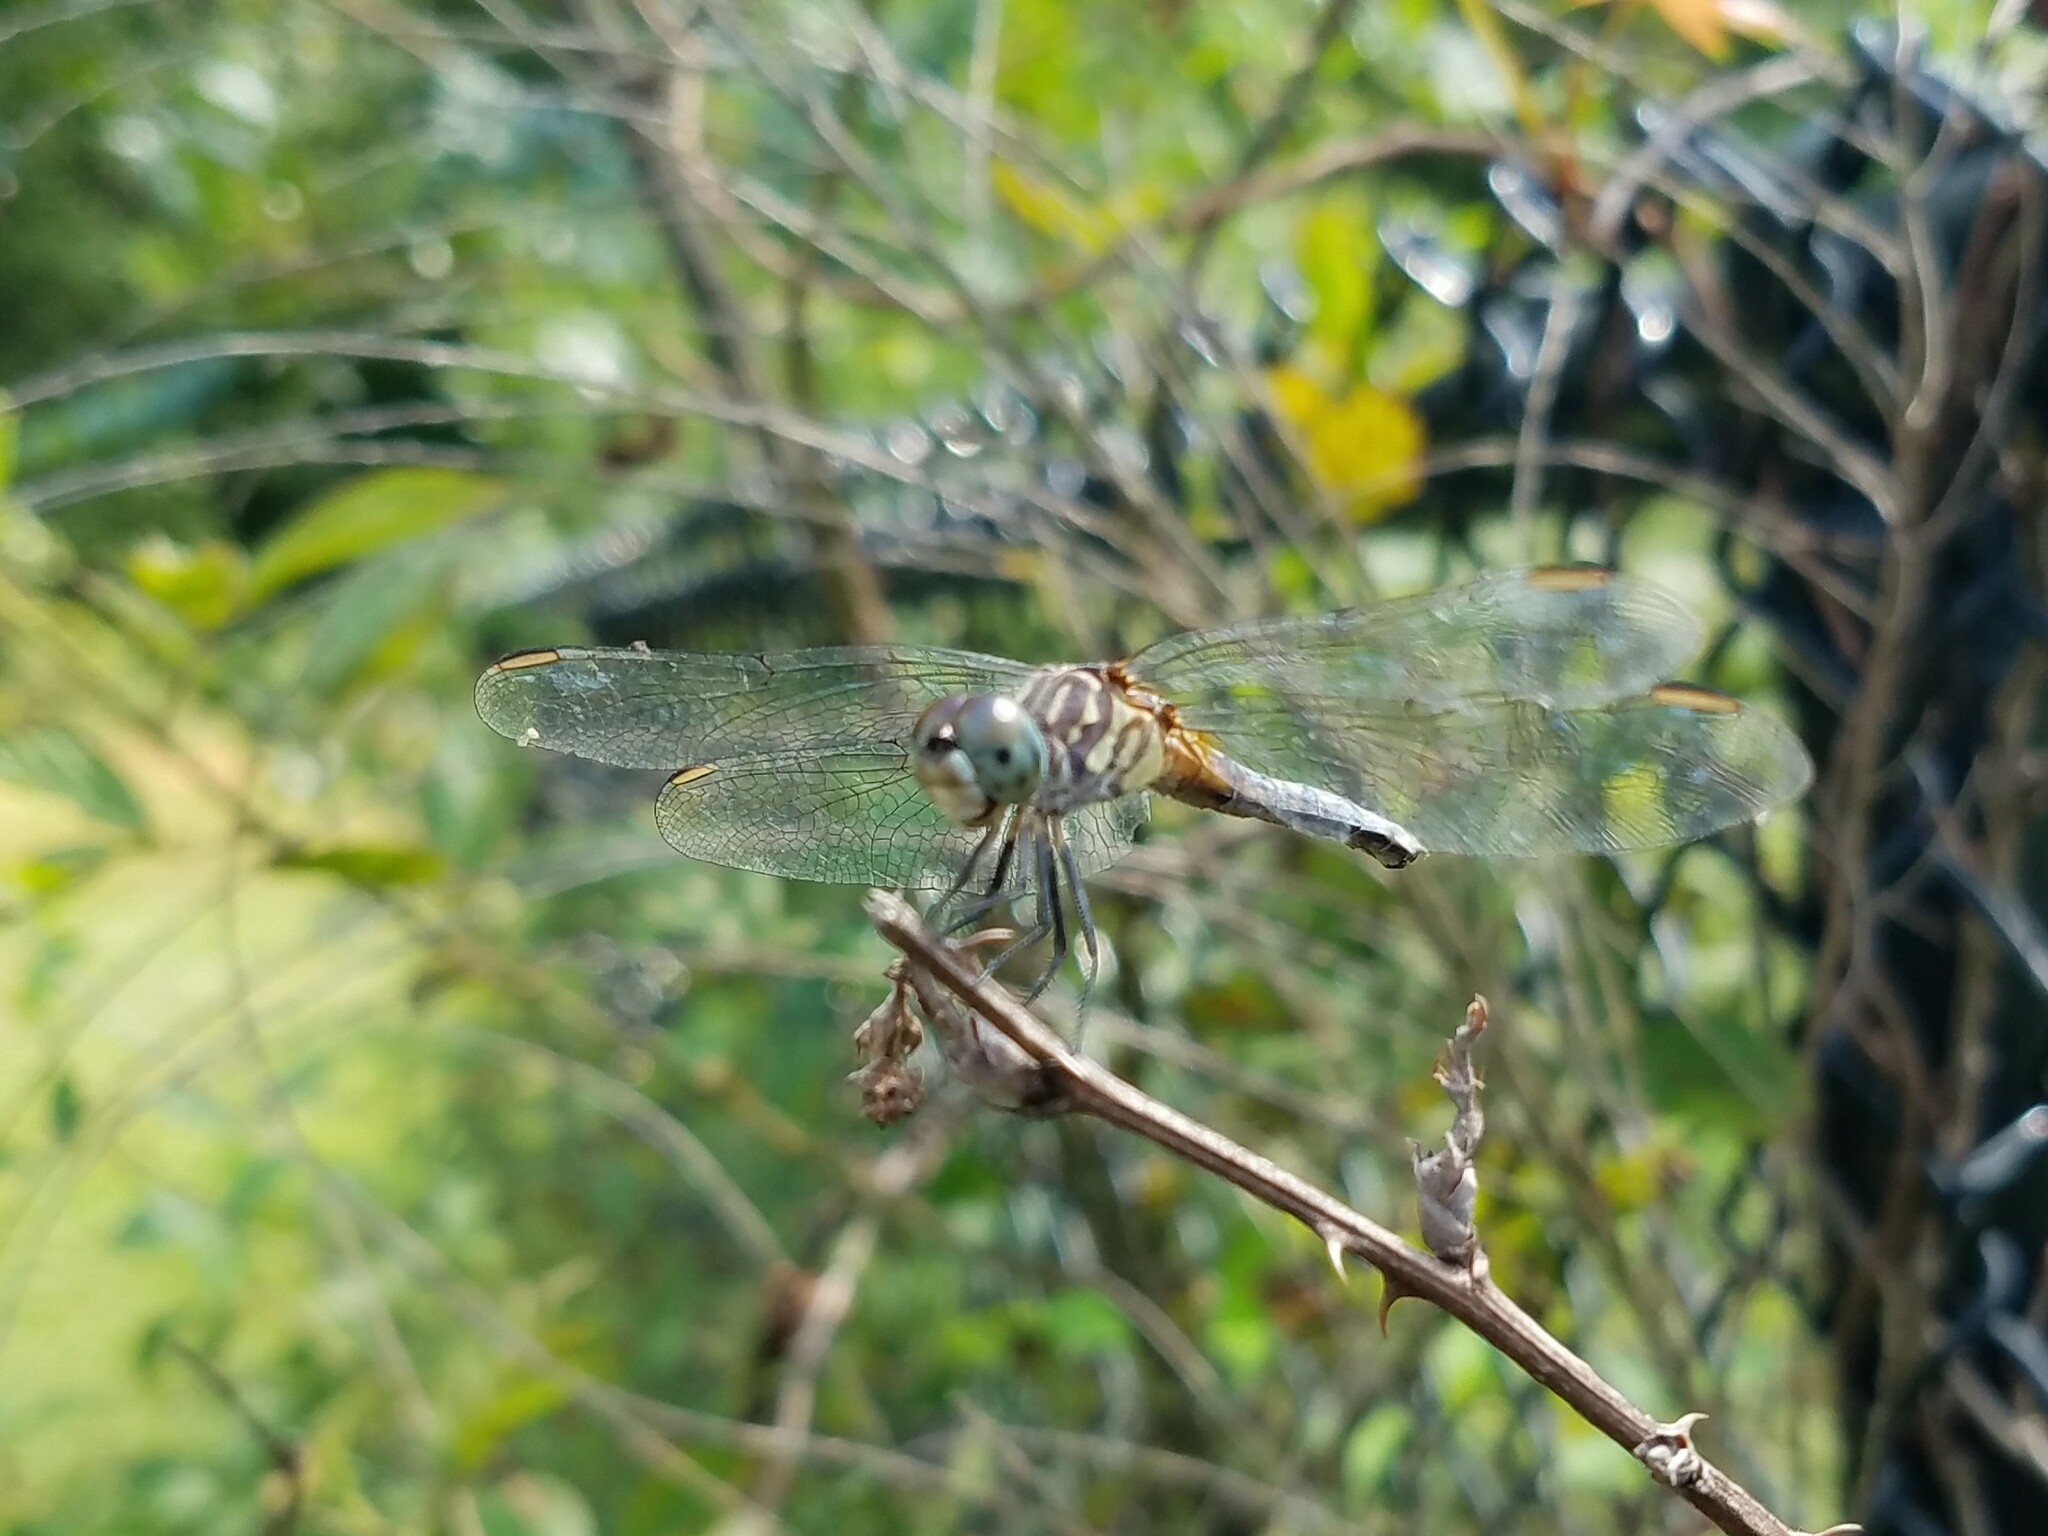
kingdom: Animalia
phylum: Arthropoda
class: Insecta
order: Odonata
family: Libellulidae
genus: Pachydiplax
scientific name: Pachydiplax longipennis
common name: Blue dasher
